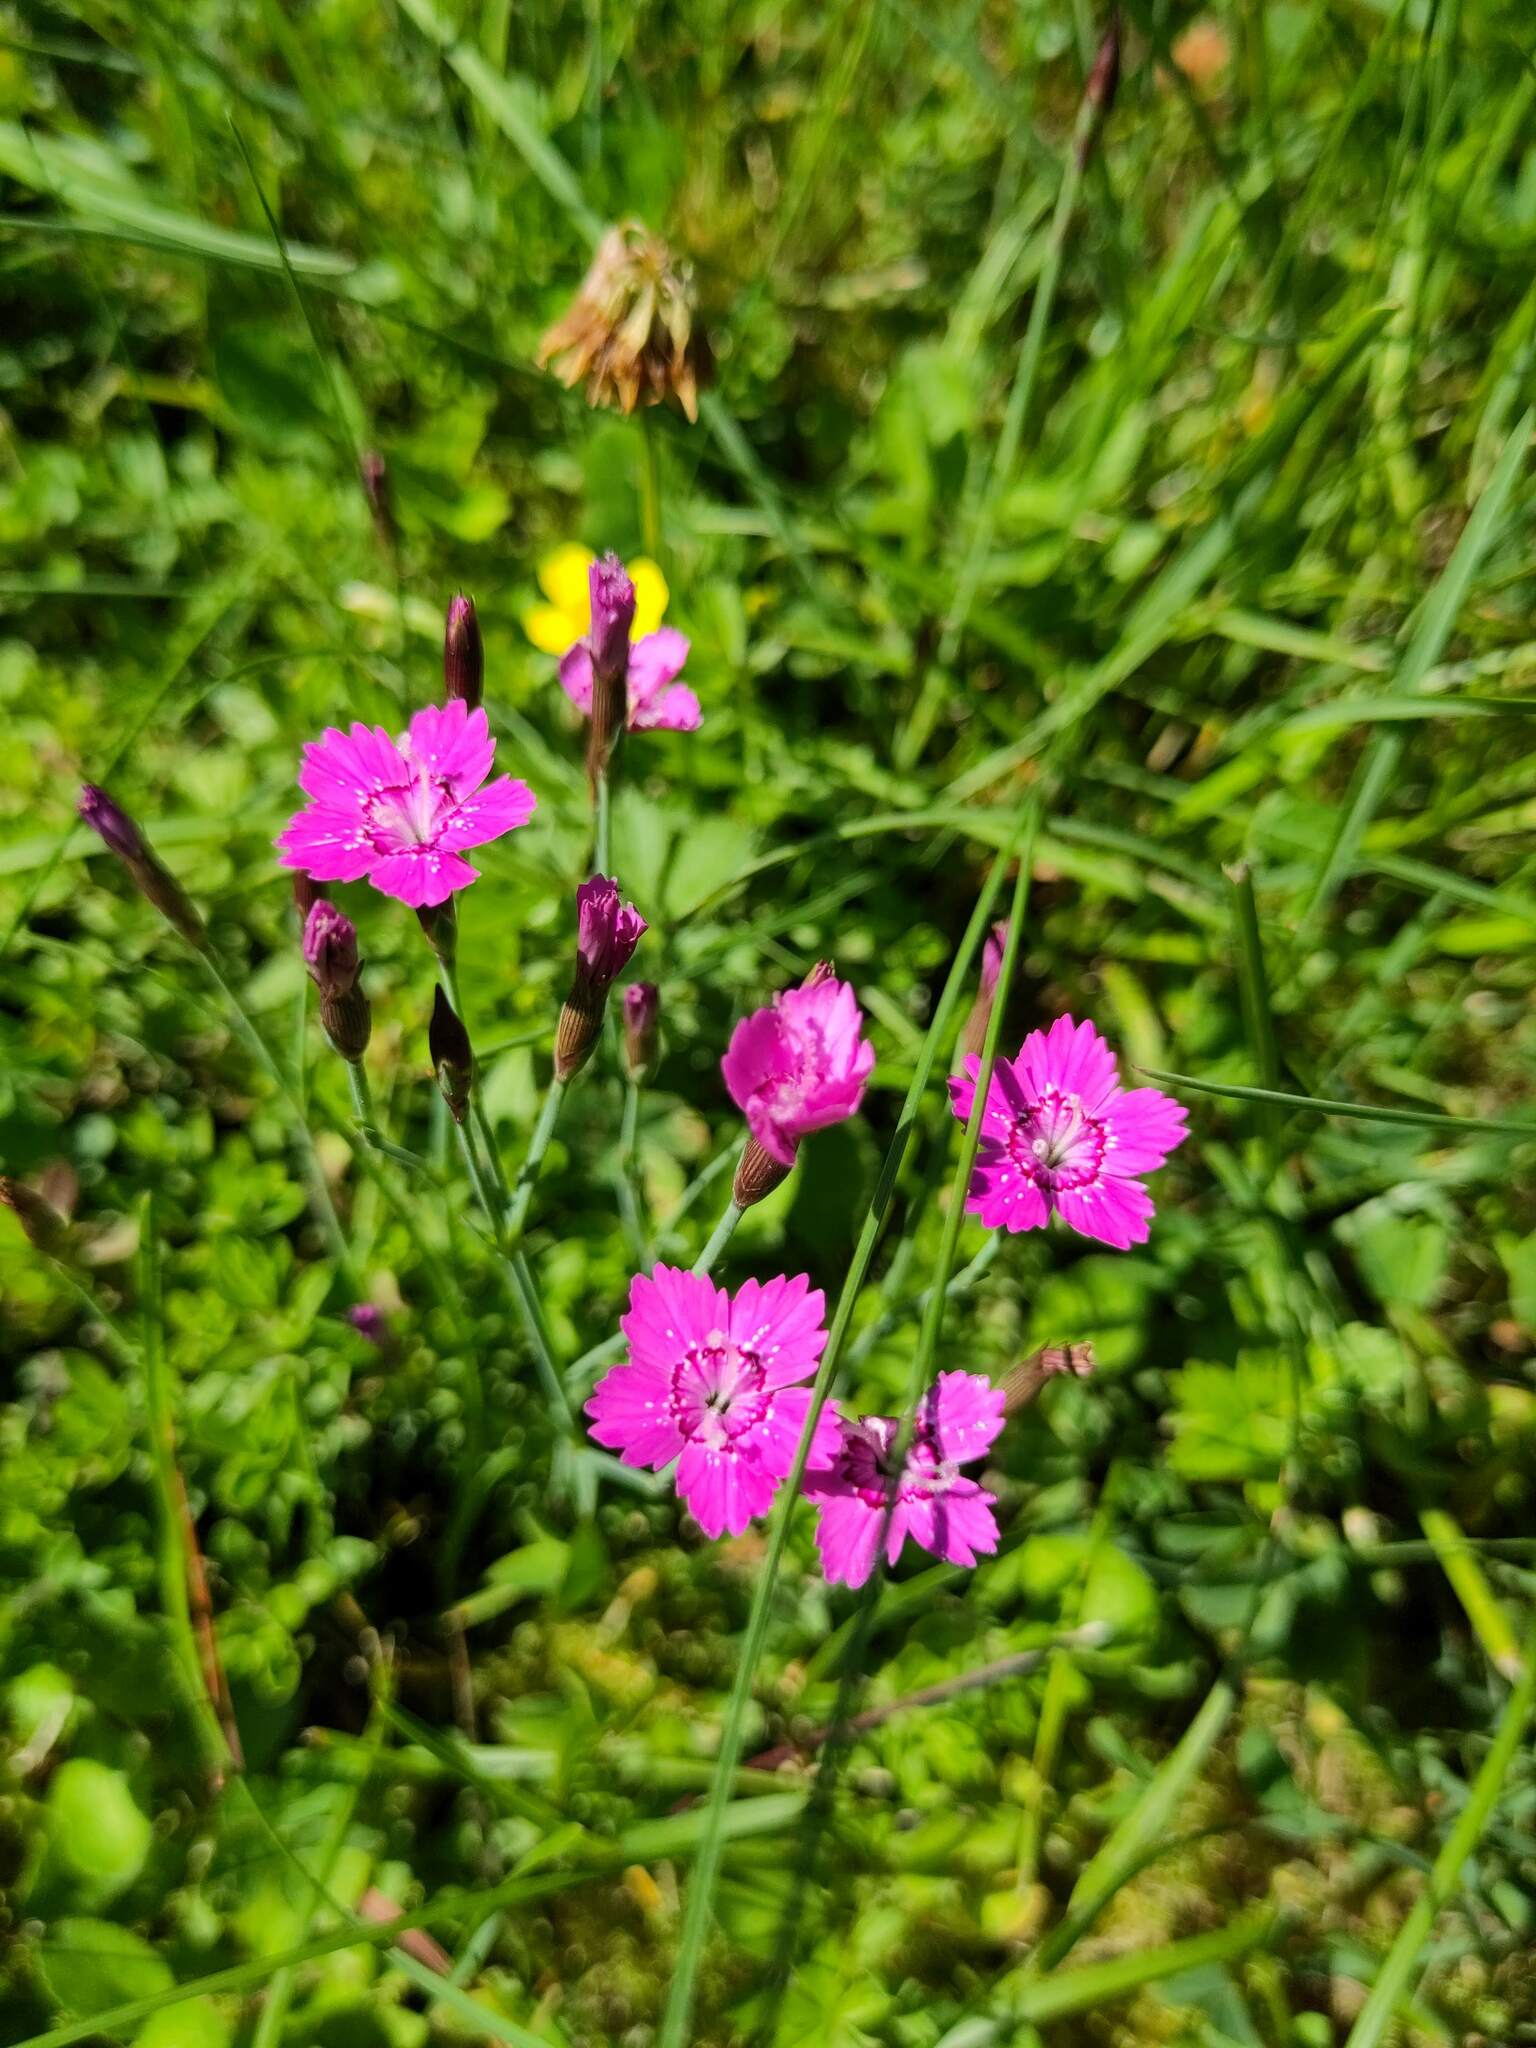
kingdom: Plantae
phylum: Tracheophyta
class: Magnoliopsida
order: Caryophyllales
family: Caryophyllaceae
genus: Dianthus
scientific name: Dianthus deltoides
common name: Maiden pink
